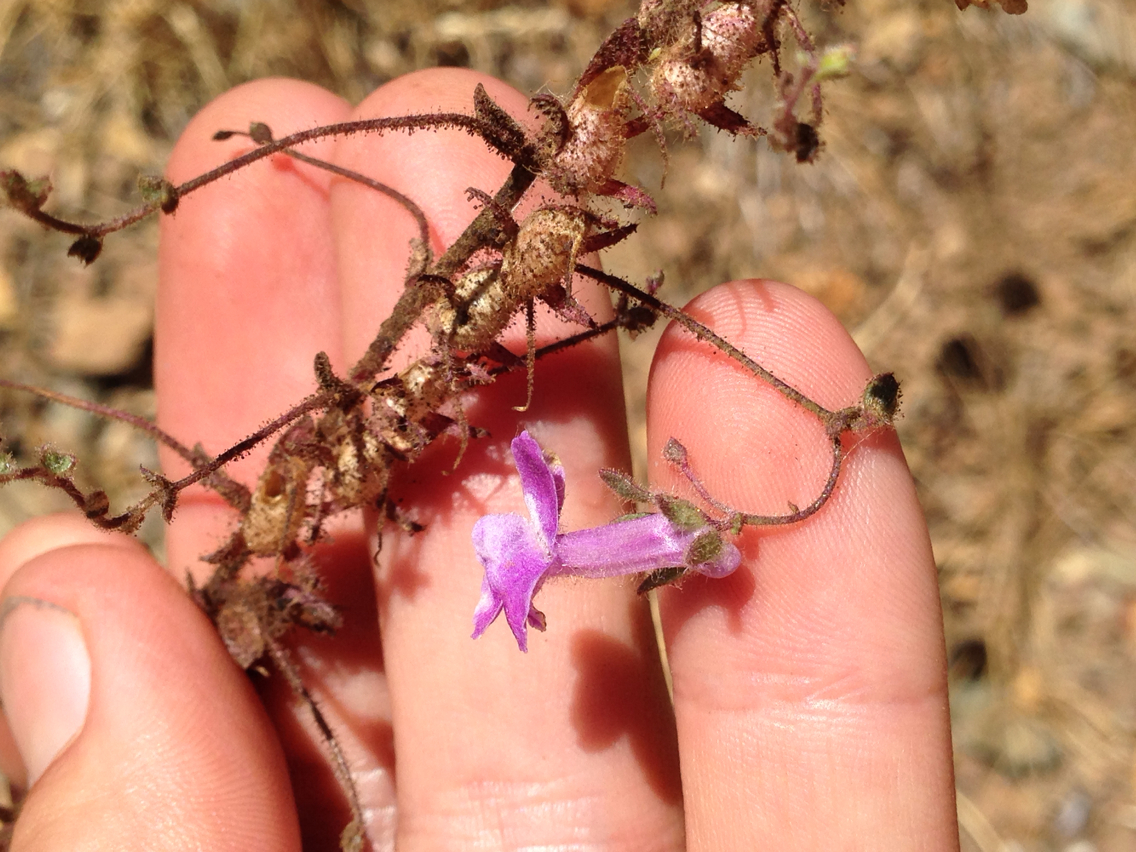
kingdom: Plantae
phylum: Tracheophyta
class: Magnoliopsida
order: Lamiales
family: Plantaginaceae
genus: Sairocarpus
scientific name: Sairocarpus vexillocalyculatus
